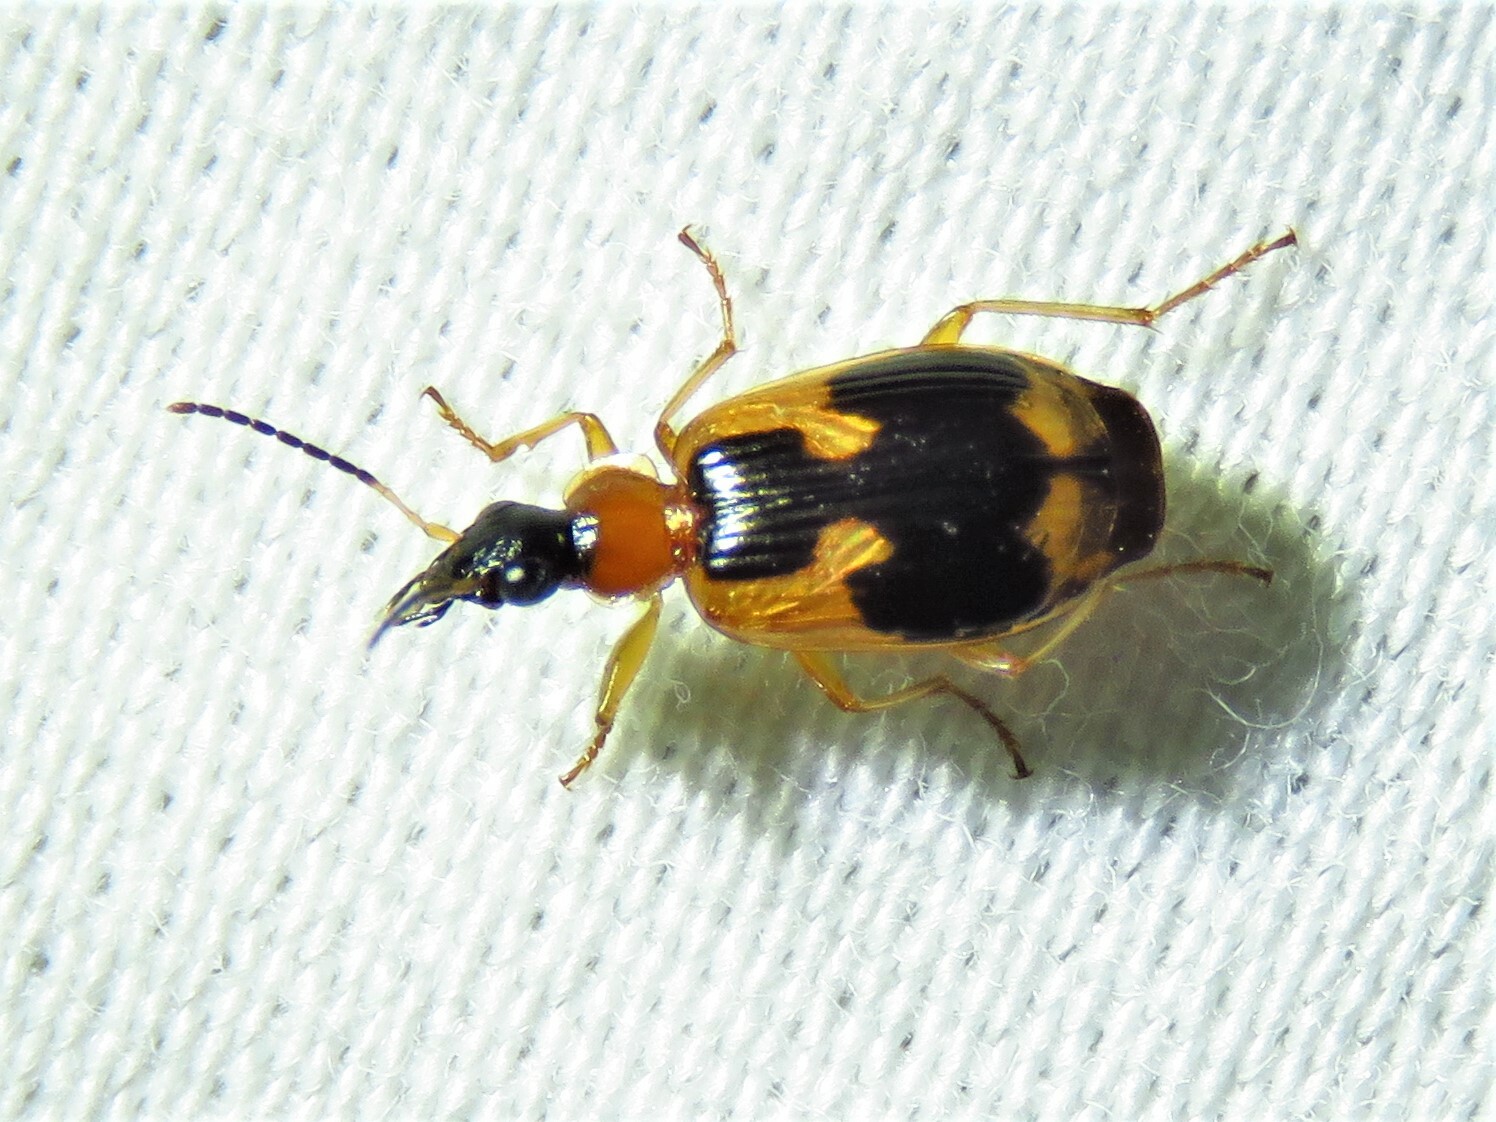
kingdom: Animalia
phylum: Arthropoda
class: Insecta
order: Coleoptera
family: Carabidae
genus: Lebia
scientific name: Lebia analis
